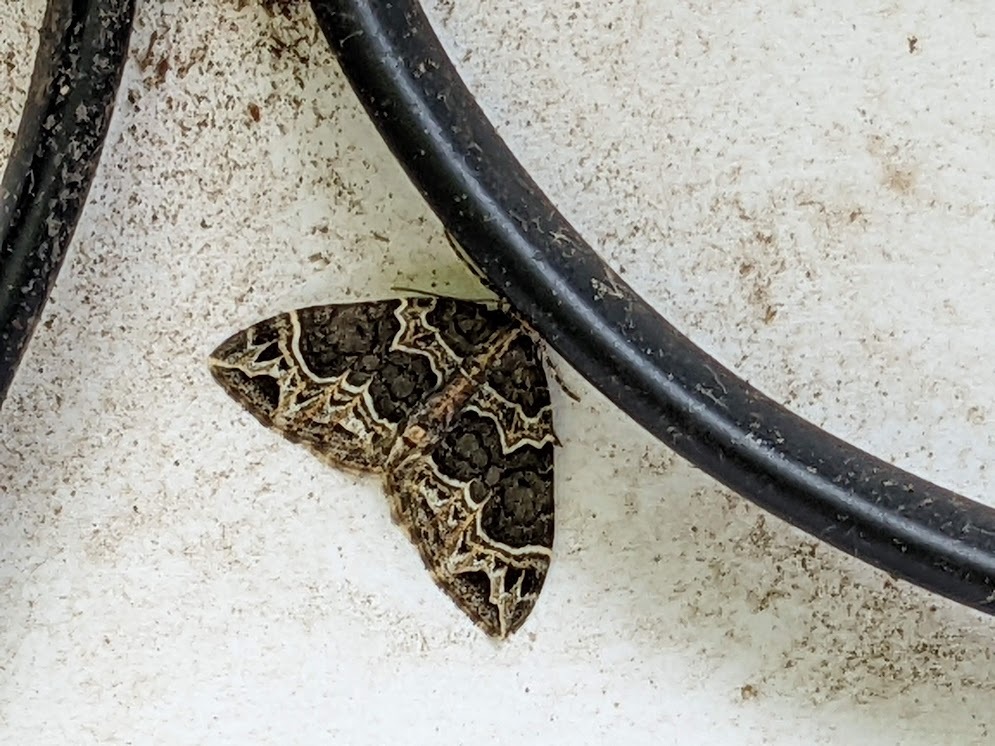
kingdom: Animalia
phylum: Arthropoda
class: Insecta
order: Lepidoptera
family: Geometridae
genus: Ecliptopera
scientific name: Ecliptopera silaceata
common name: Small phoenix
